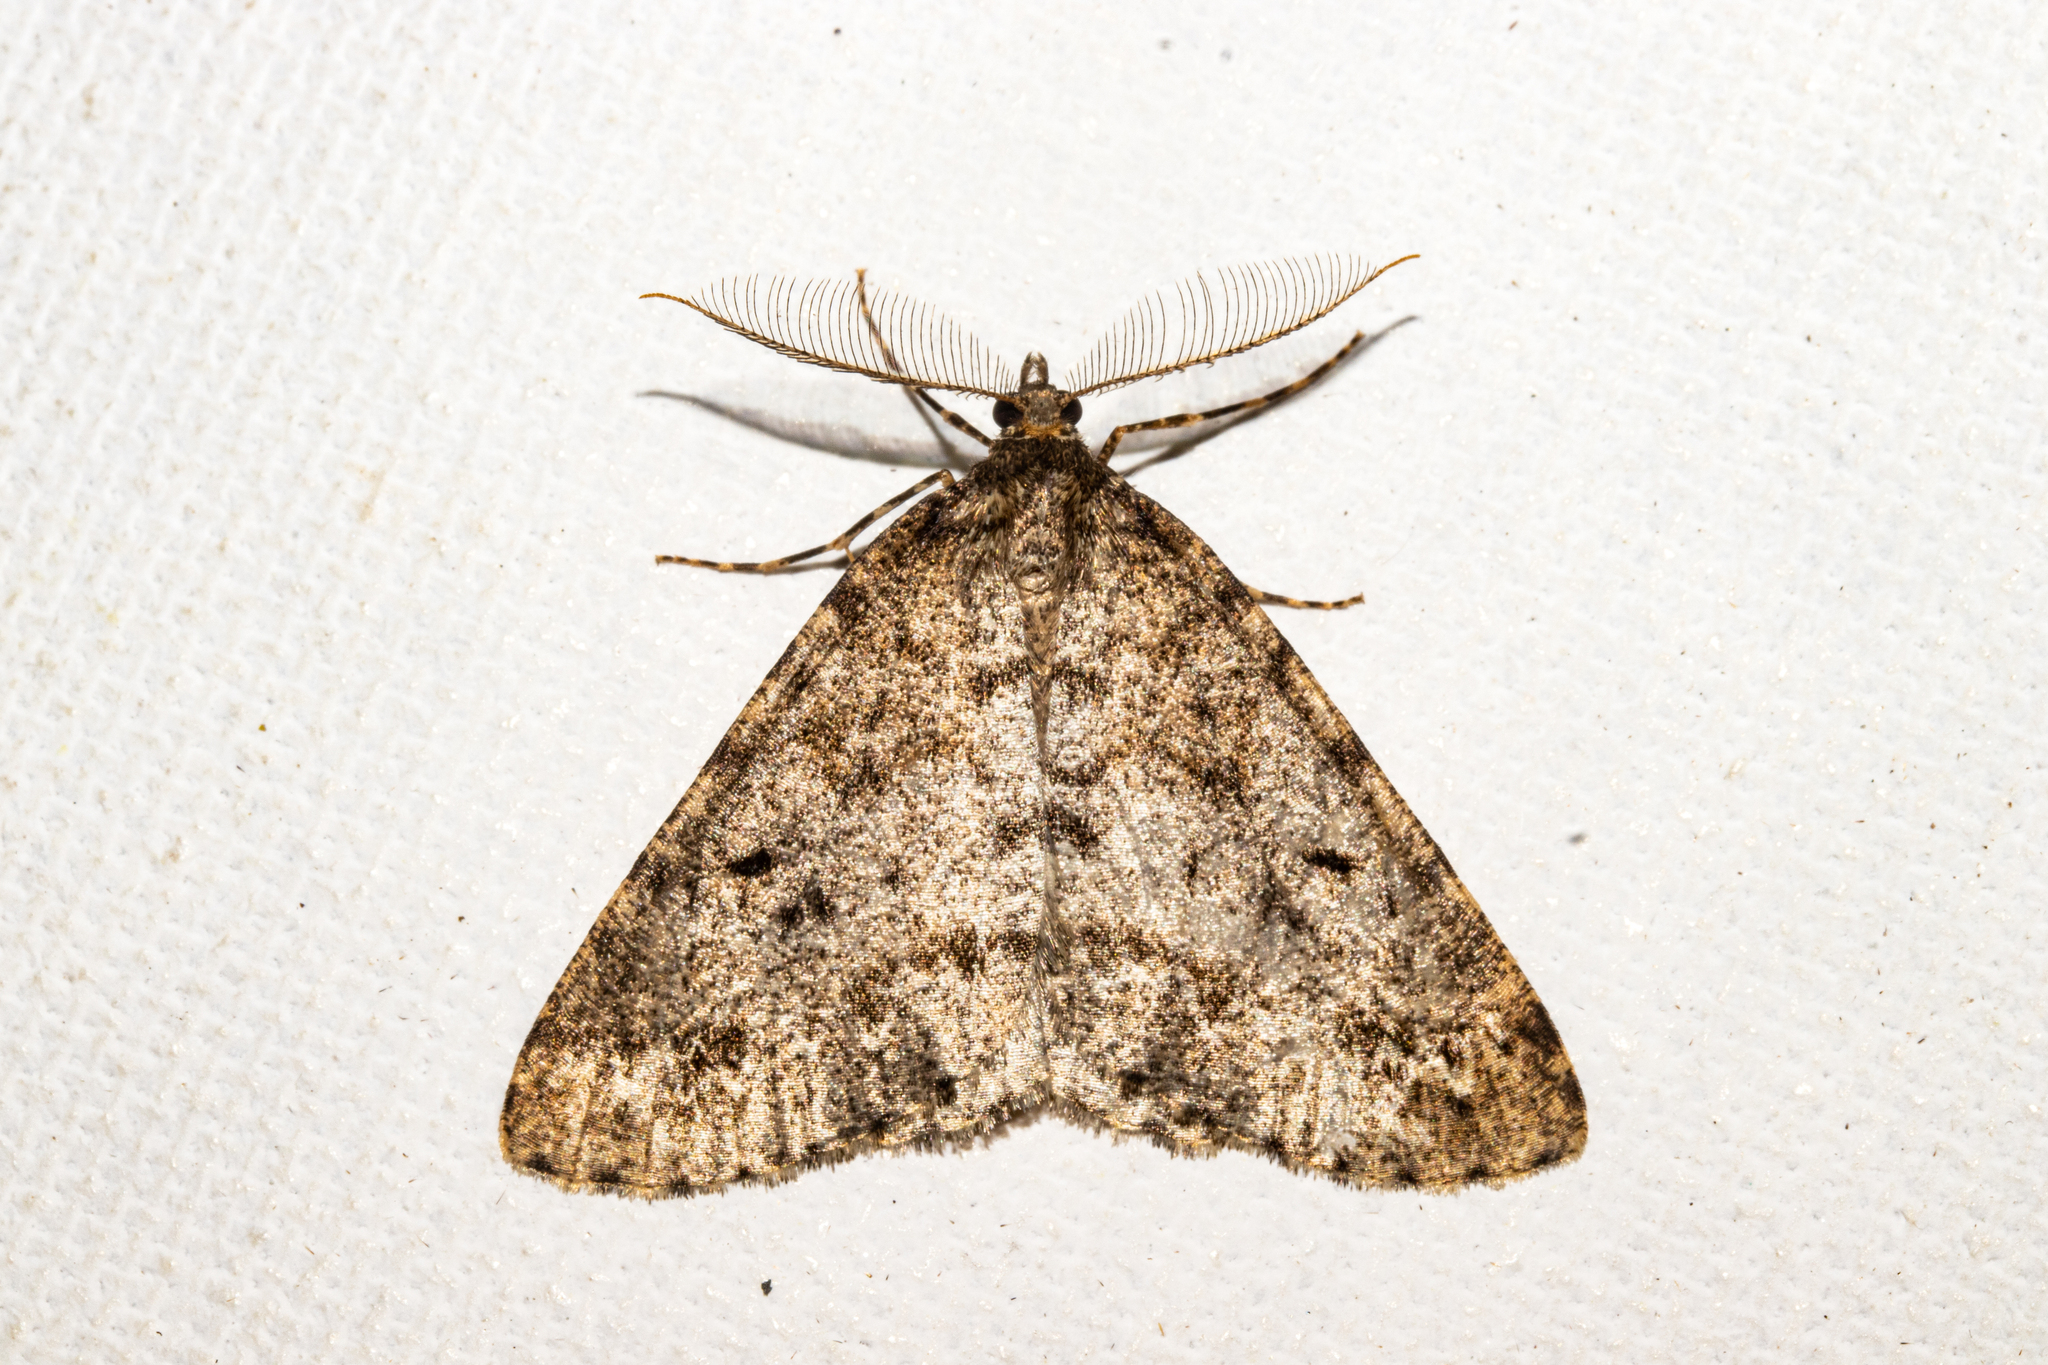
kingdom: Animalia
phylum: Arthropoda
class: Insecta
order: Lepidoptera
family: Geometridae
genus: Pseudocoremia
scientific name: Pseudocoremia terrena
